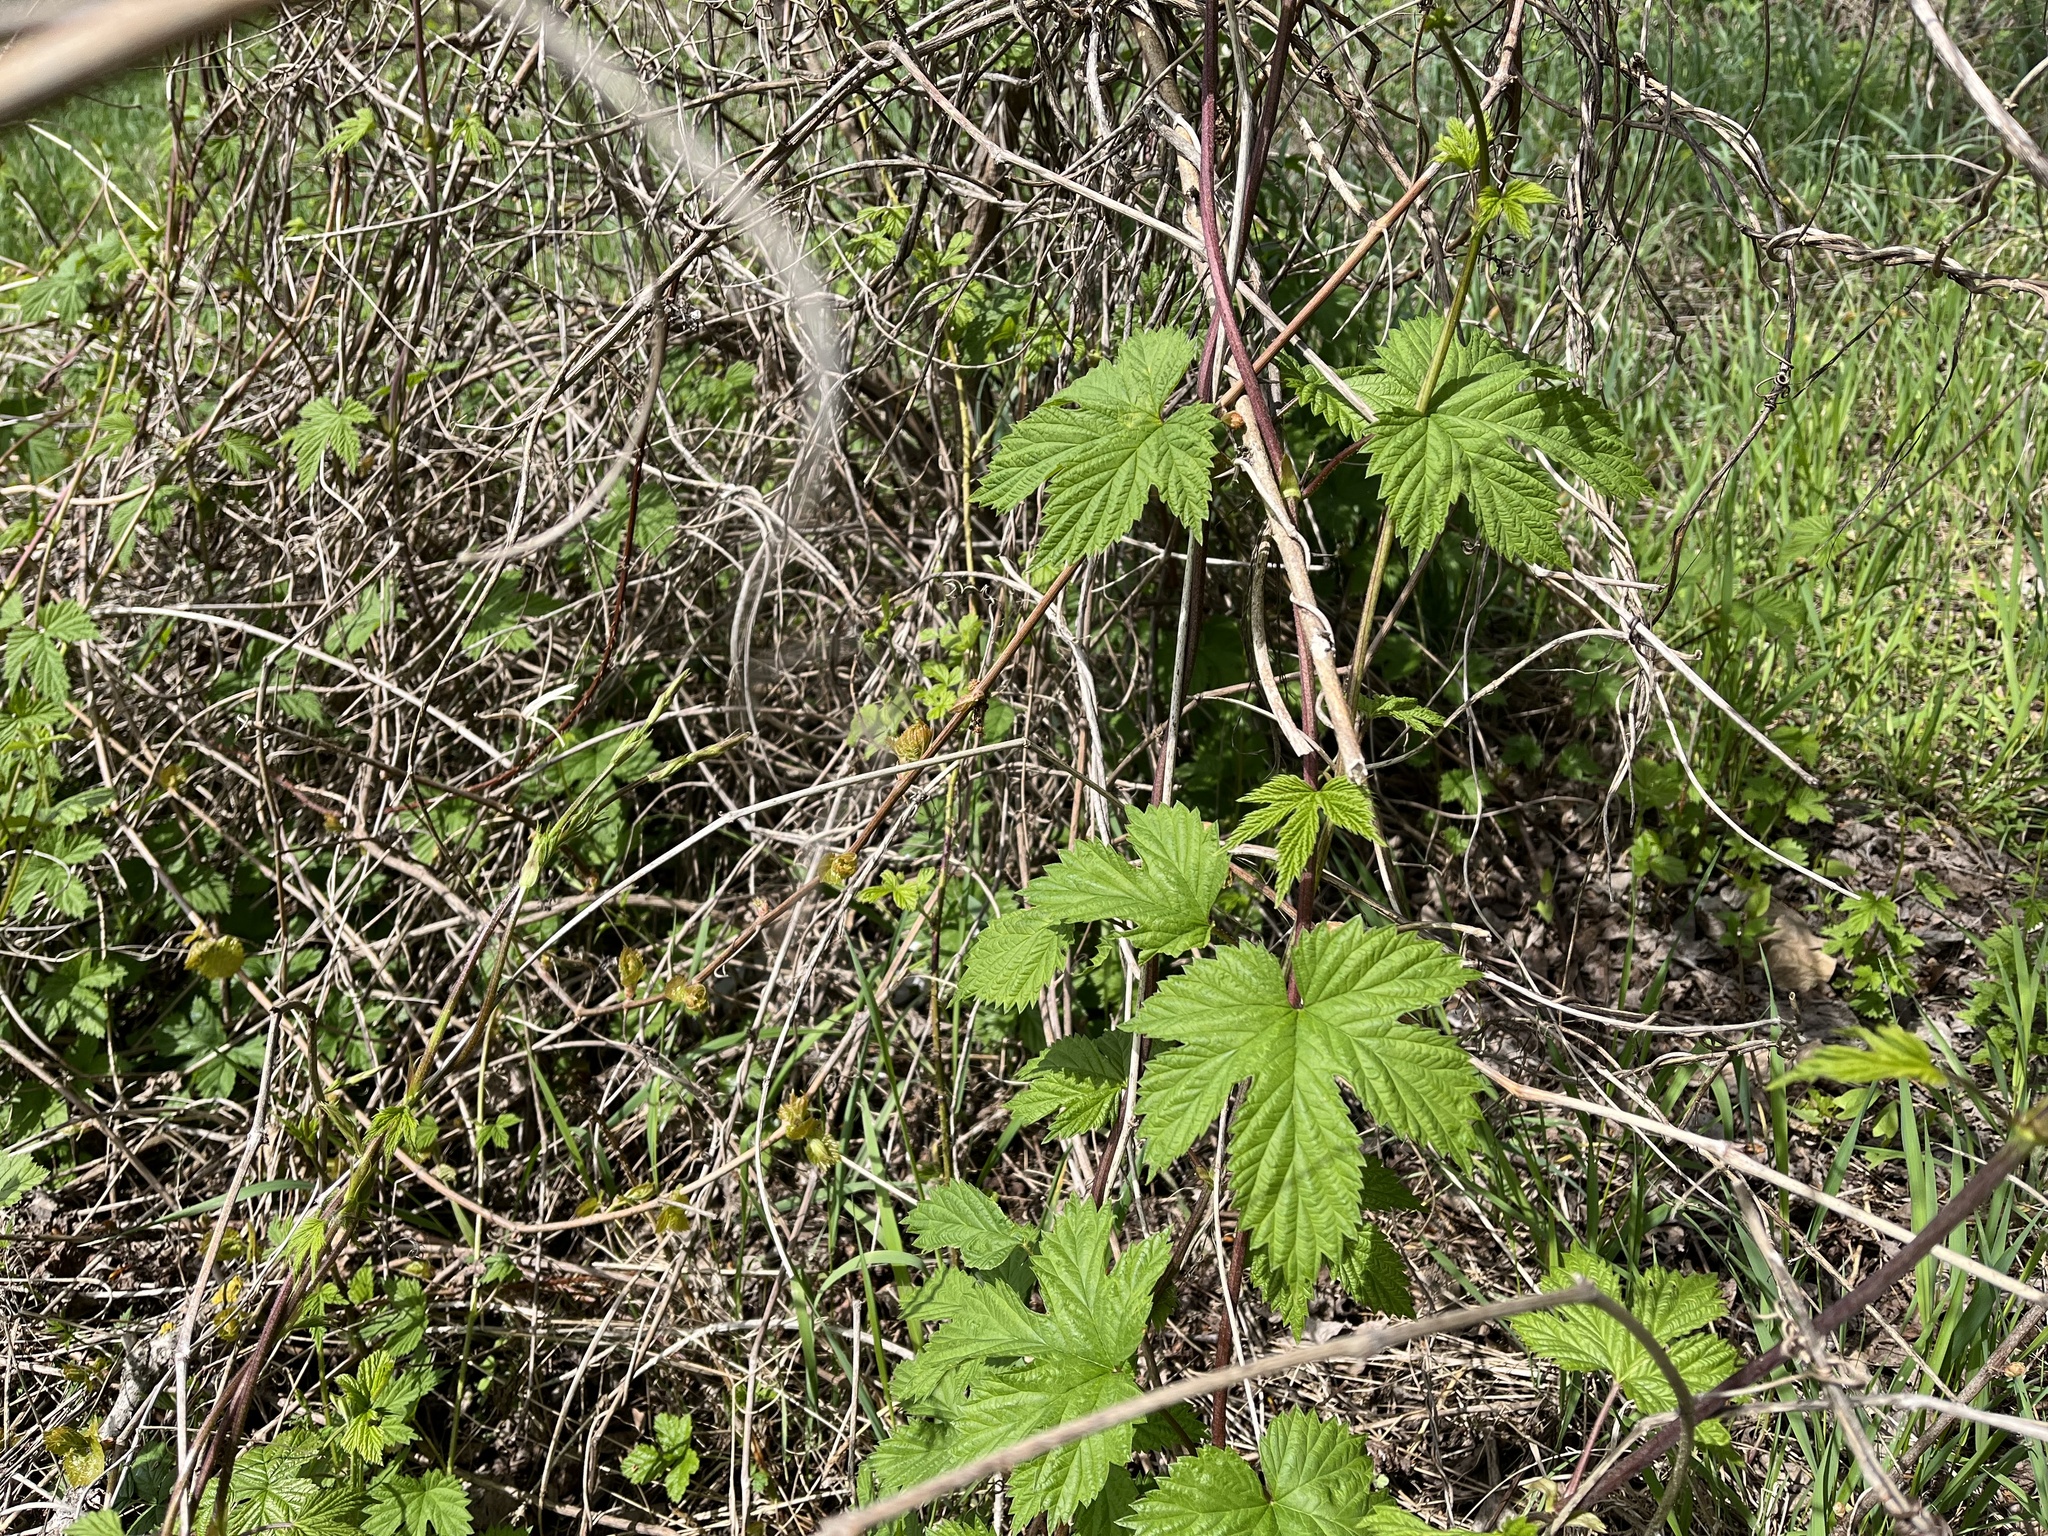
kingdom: Plantae
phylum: Tracheophyta
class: Magnoliopsida
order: Rosales
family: Cannabaceae
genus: Humulus
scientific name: Humulus lupulus
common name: Hop
